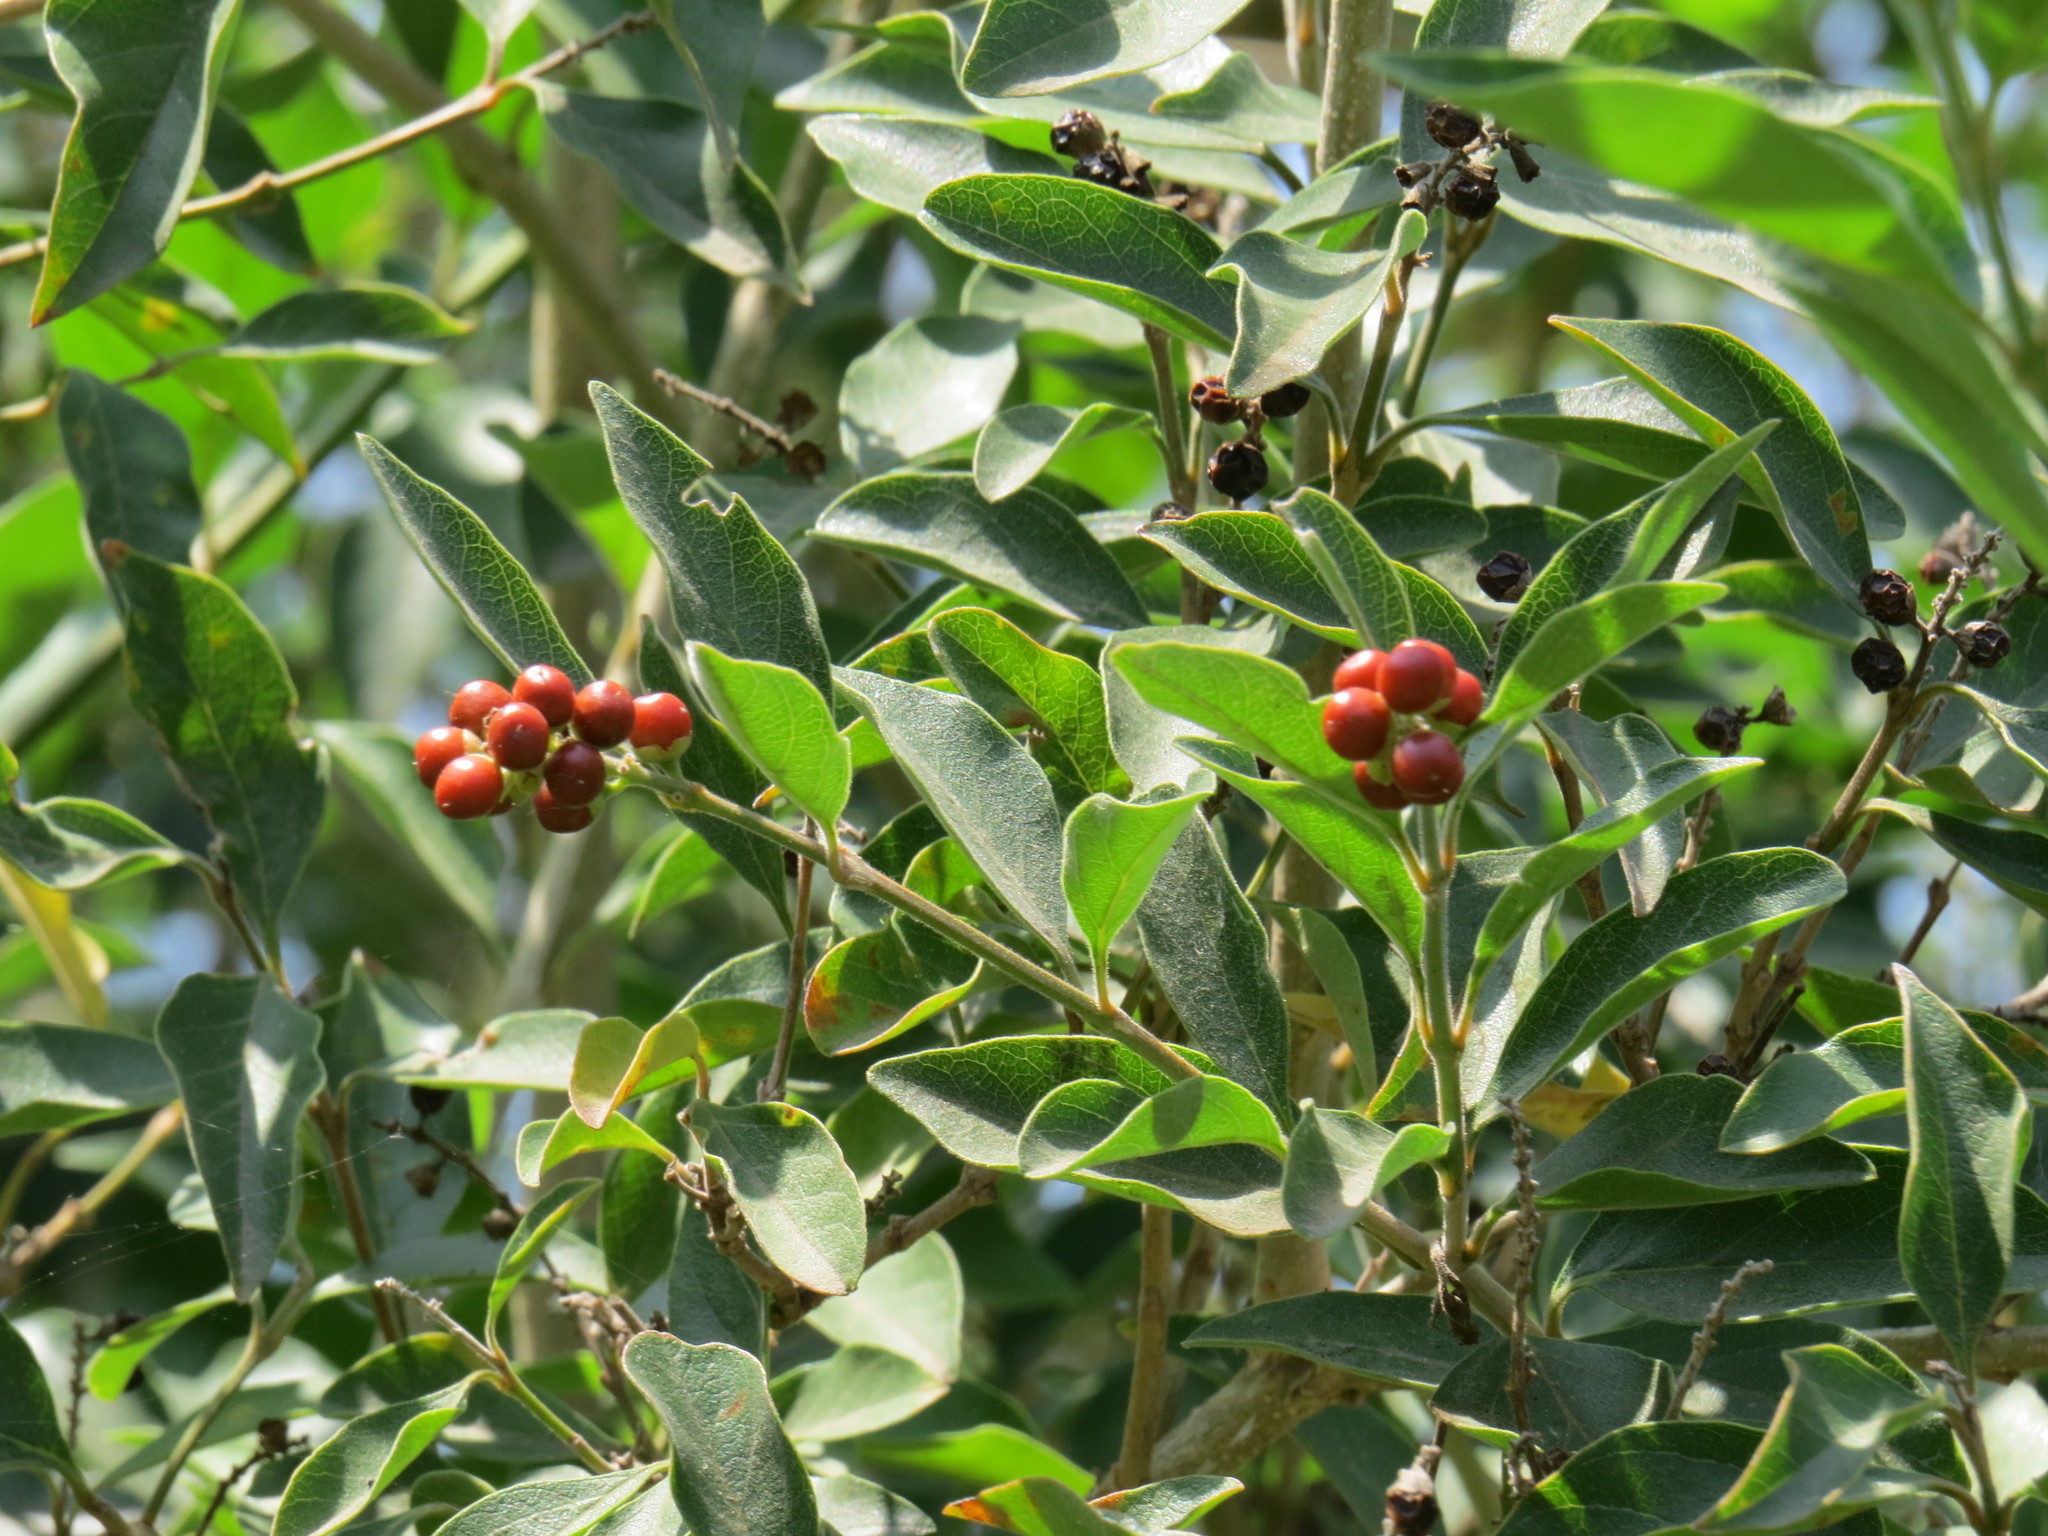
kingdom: Plantae
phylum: Tracheophyta
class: Magnoliopsida
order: Lamiales
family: Verbenaceae
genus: Citharexylum
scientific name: Citharexylum berlandieri
